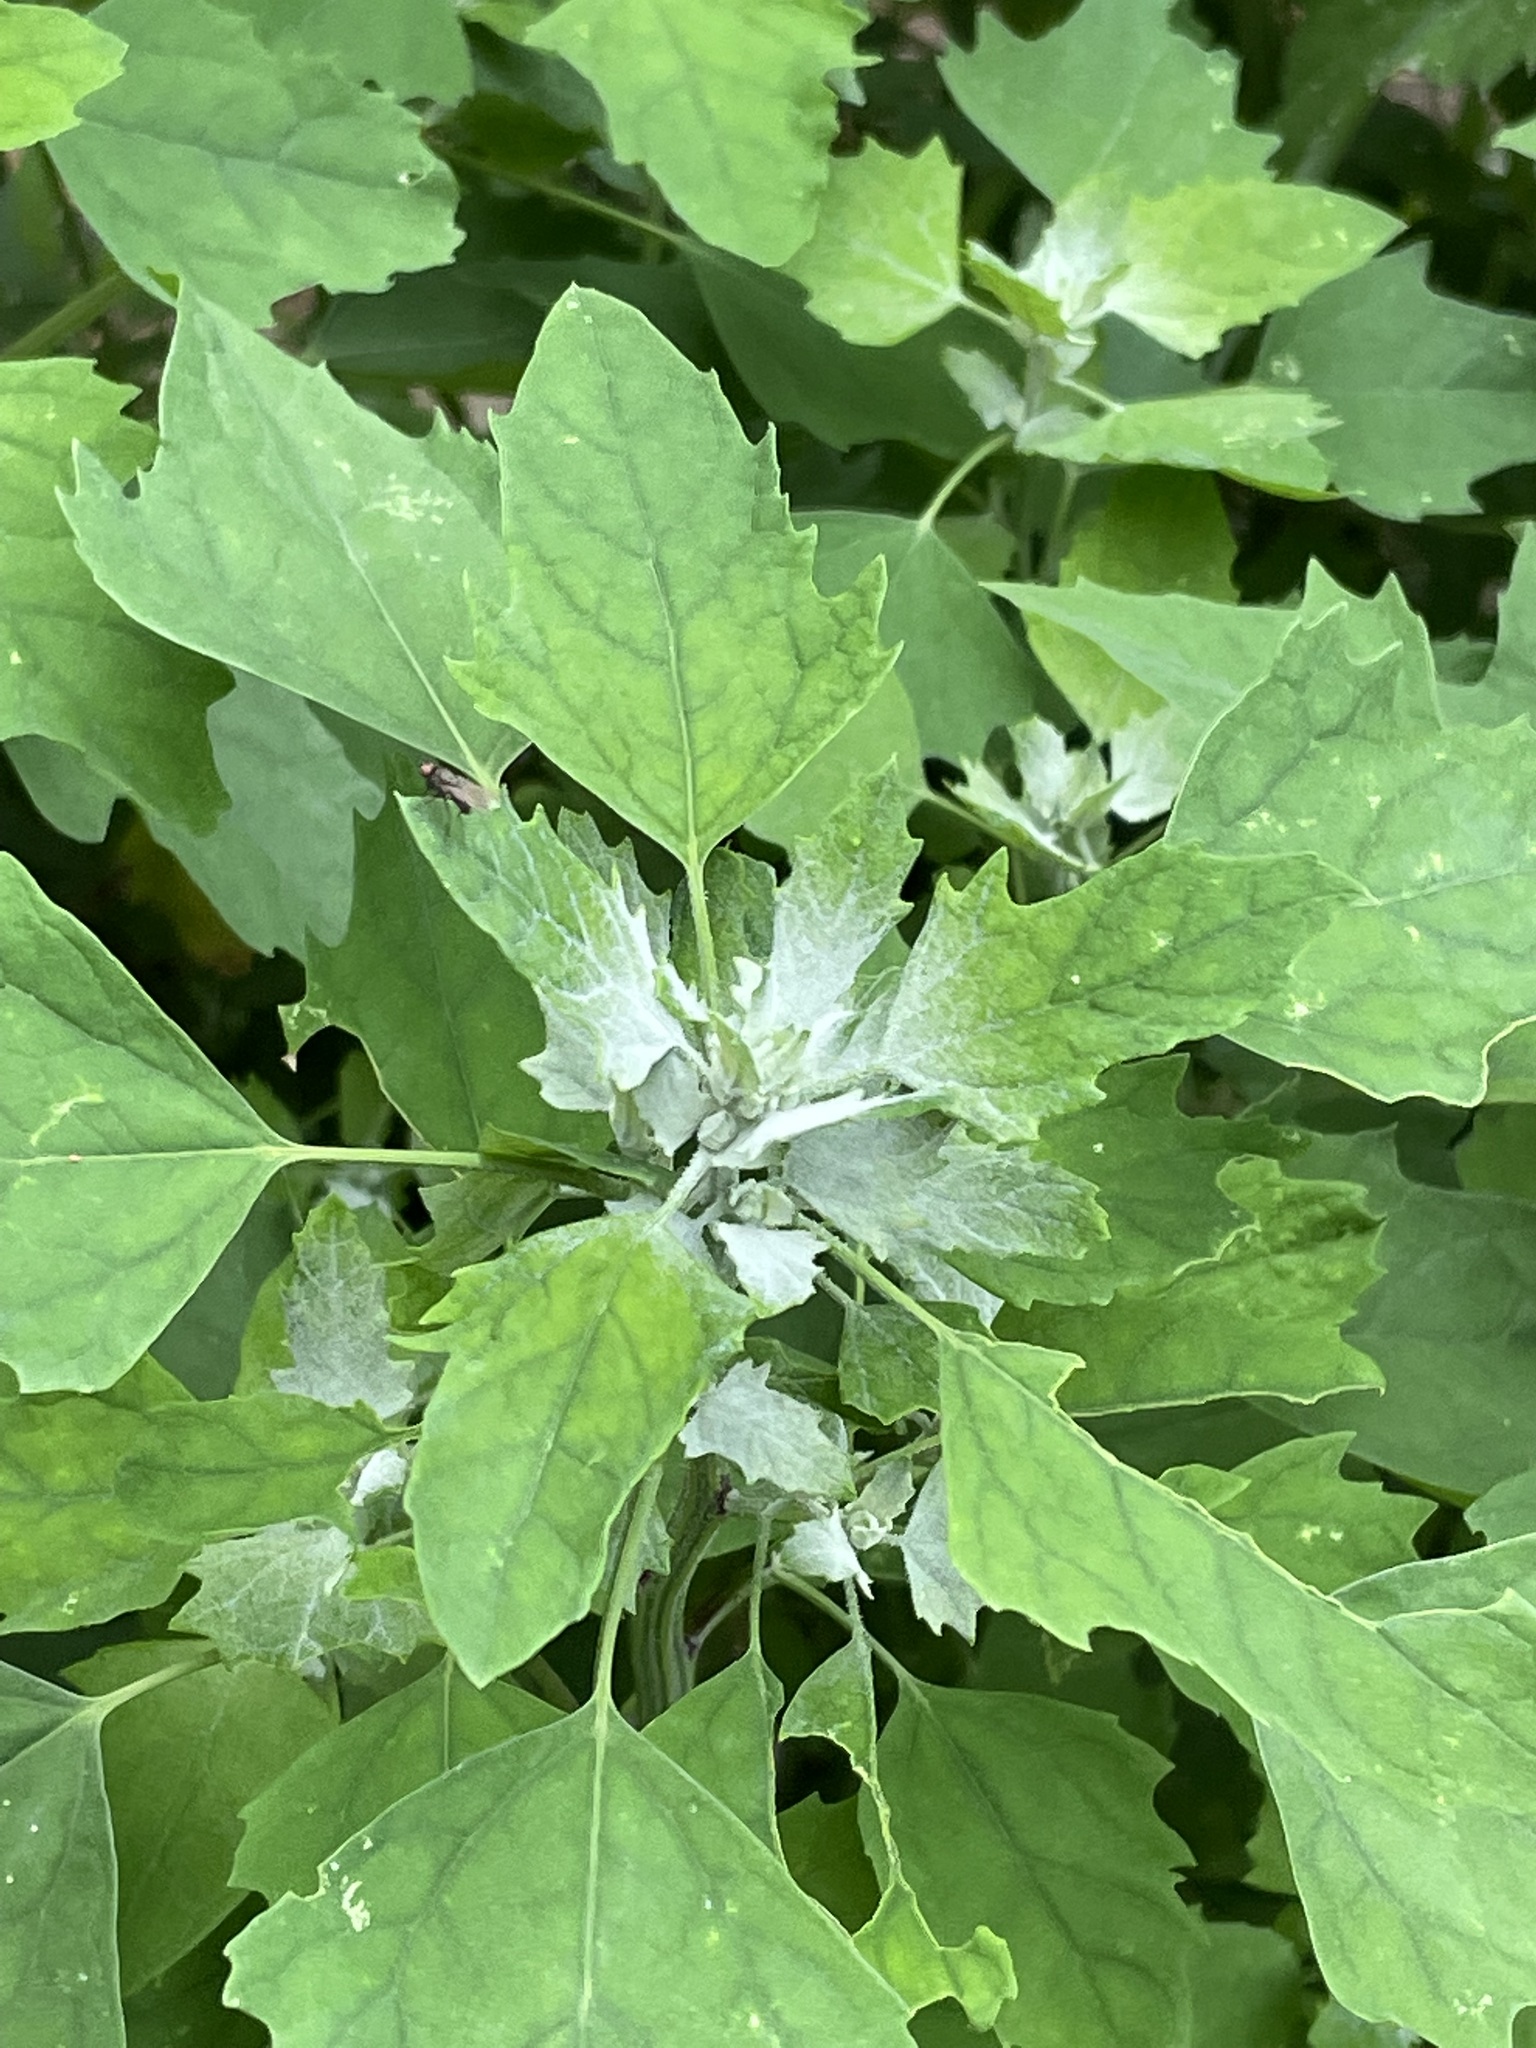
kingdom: Plantae
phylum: Tracheophyta
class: Magnoliopsida
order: Caryophyllales
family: Amaranthaceae
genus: Chenopodium
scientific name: Chenopodium album
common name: Fat-hen
